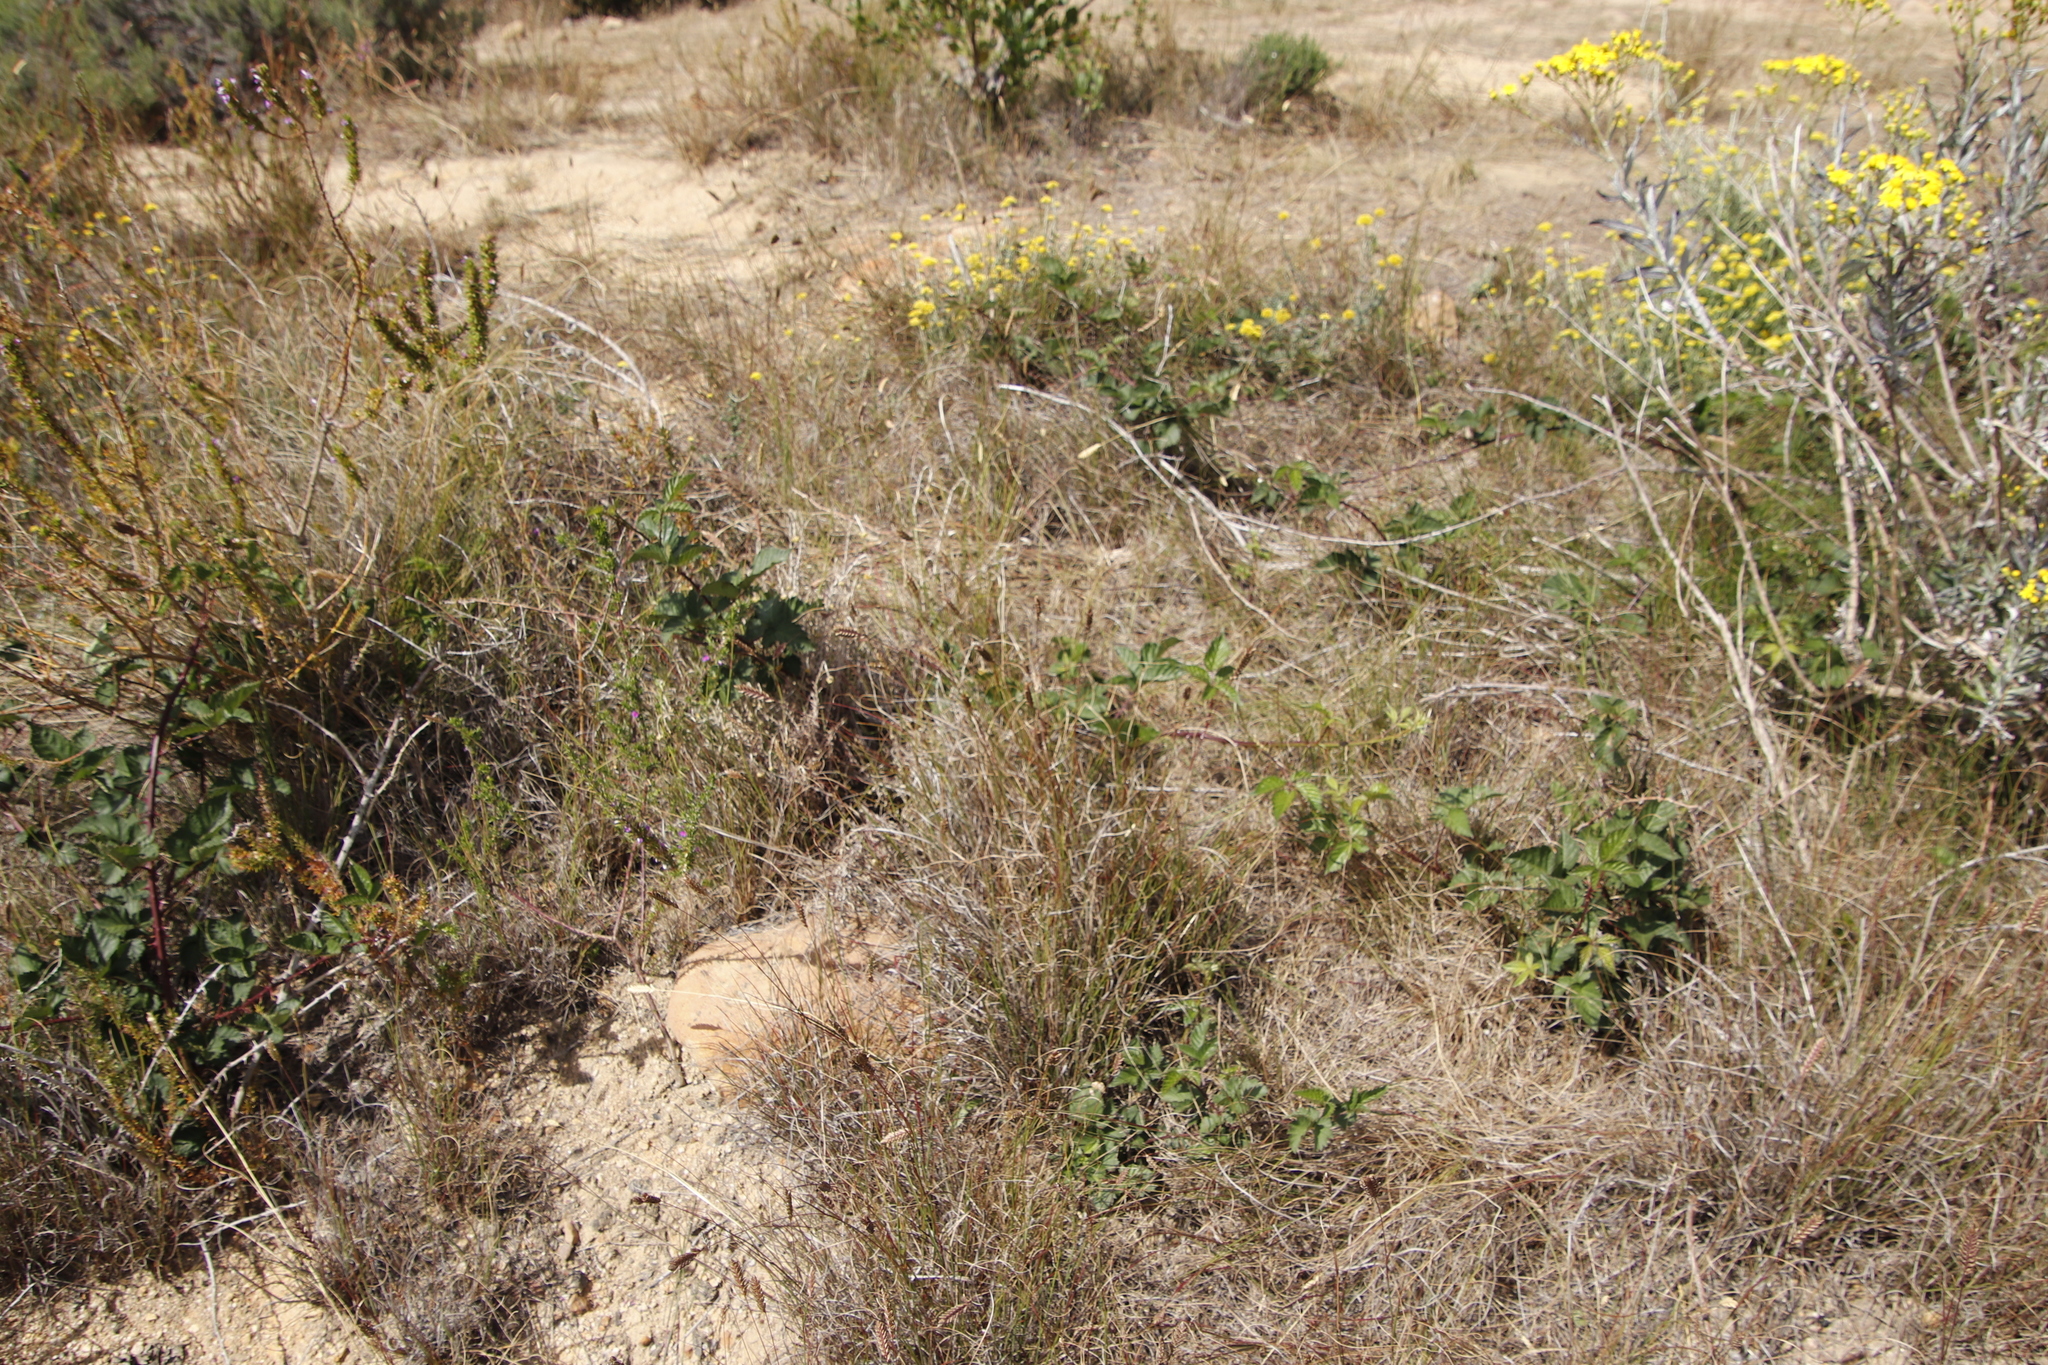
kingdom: Plantae
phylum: Tracheophyta
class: Magnoliopsida
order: Rosales
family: Rosaceae
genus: Rubus
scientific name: Rubus affinis
